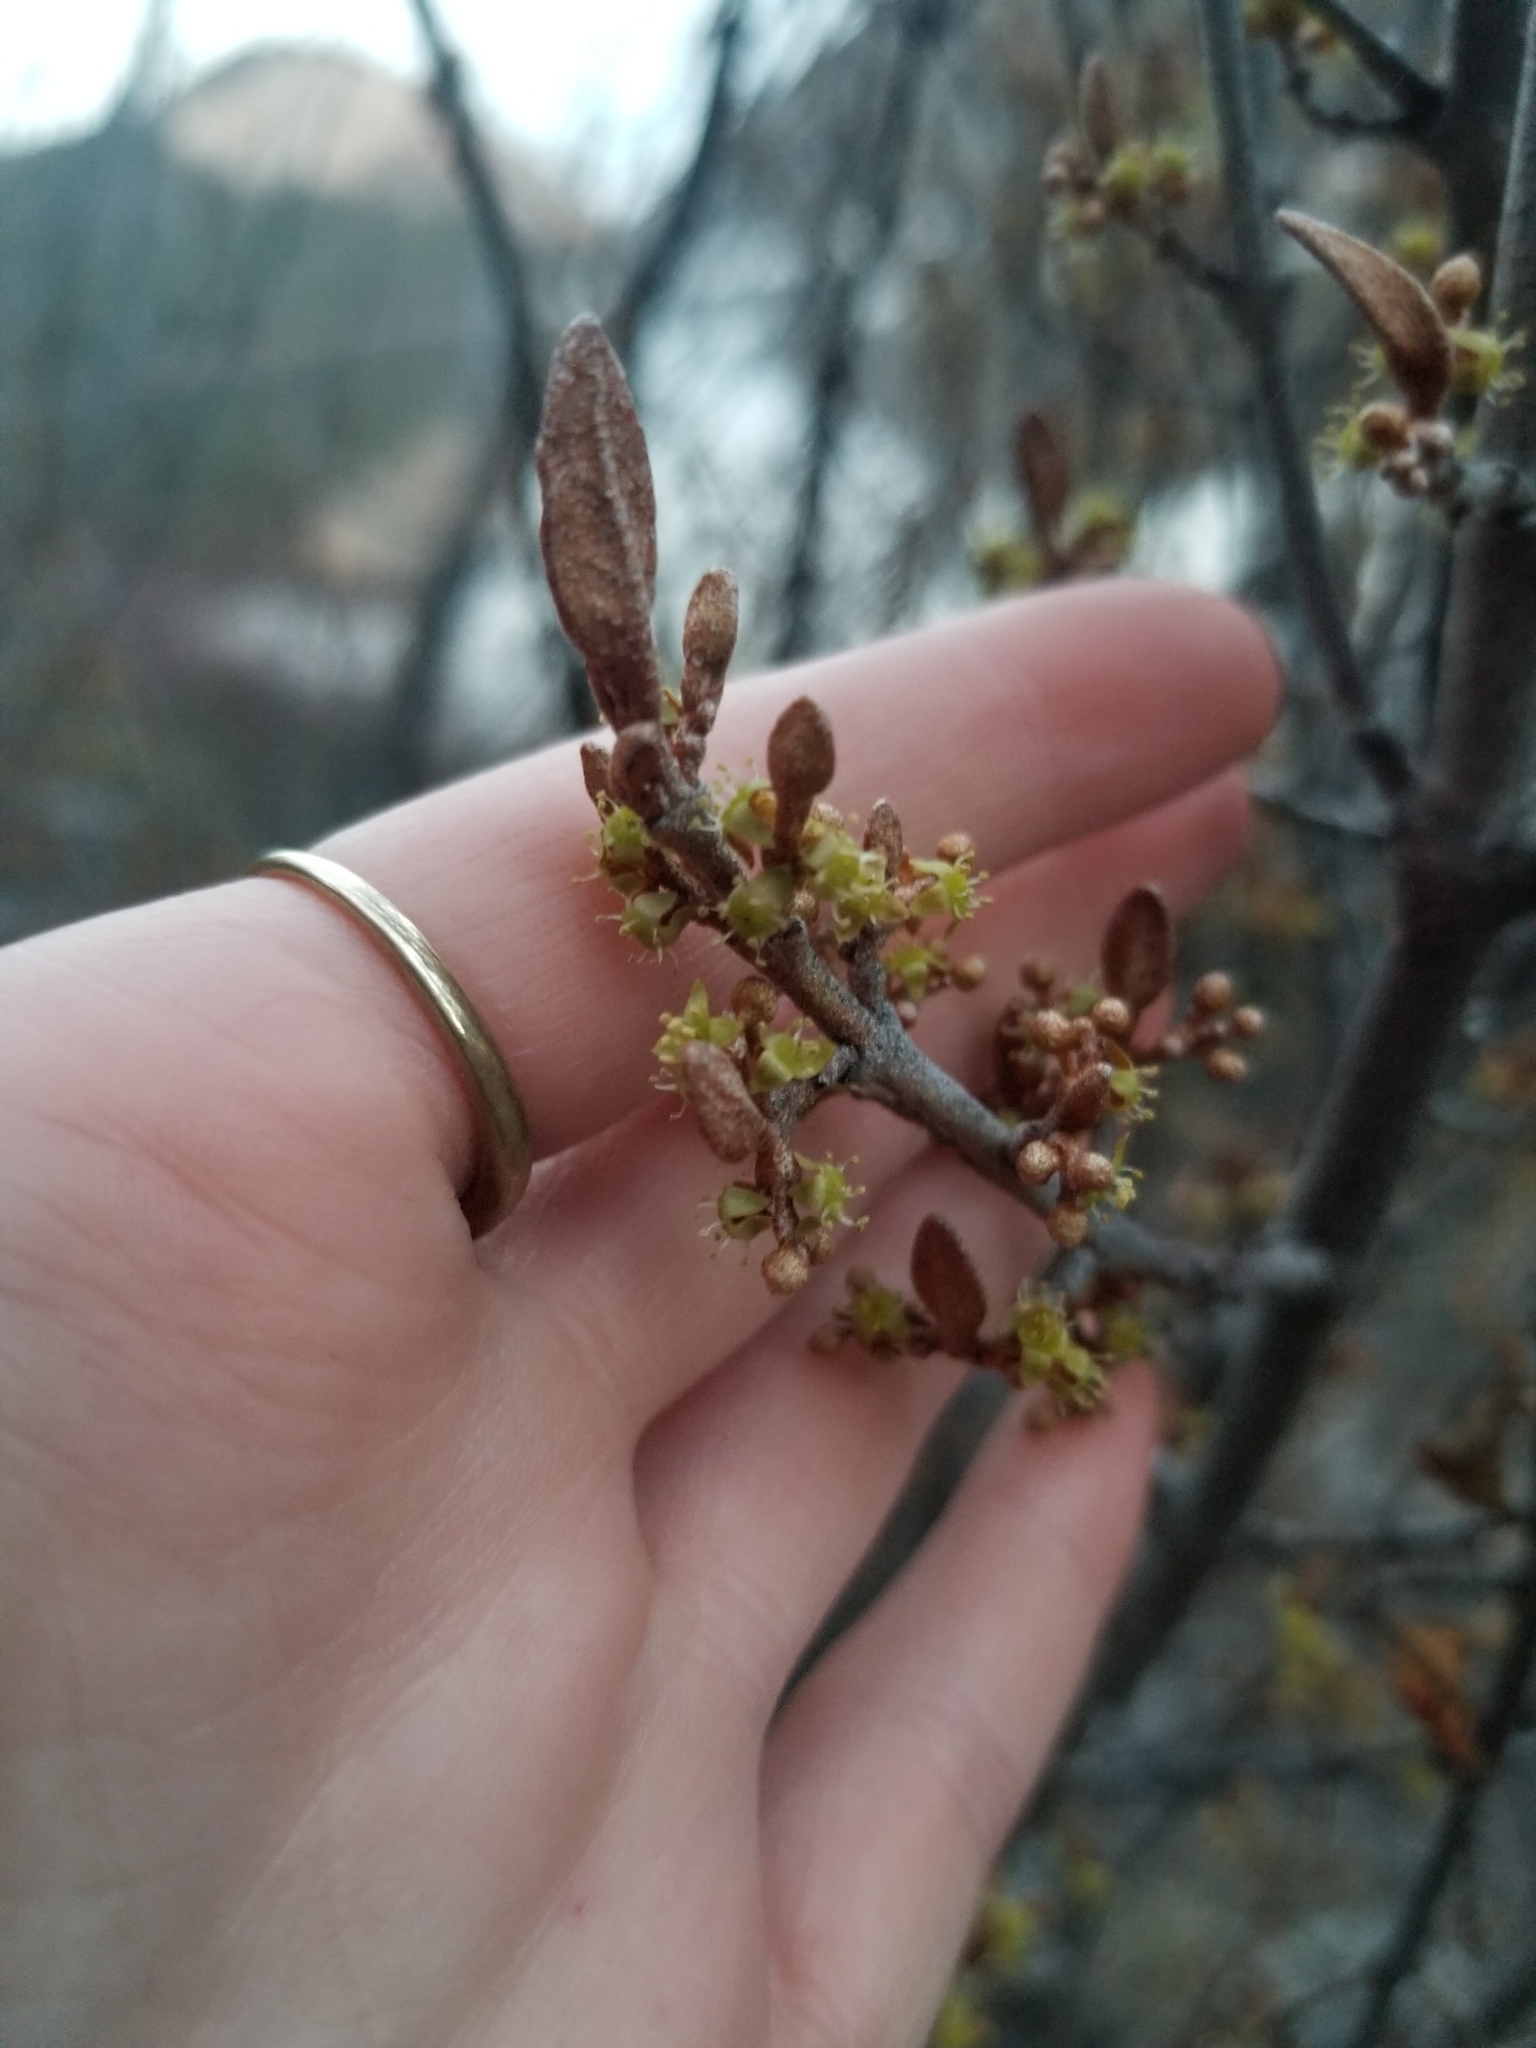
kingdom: Plantae
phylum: Tracheophyta
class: Magnoliopsida
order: Rosales
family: Elaeagnaceae
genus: Shepherdia
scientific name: Shepherdia canadensis
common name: Soapberry
